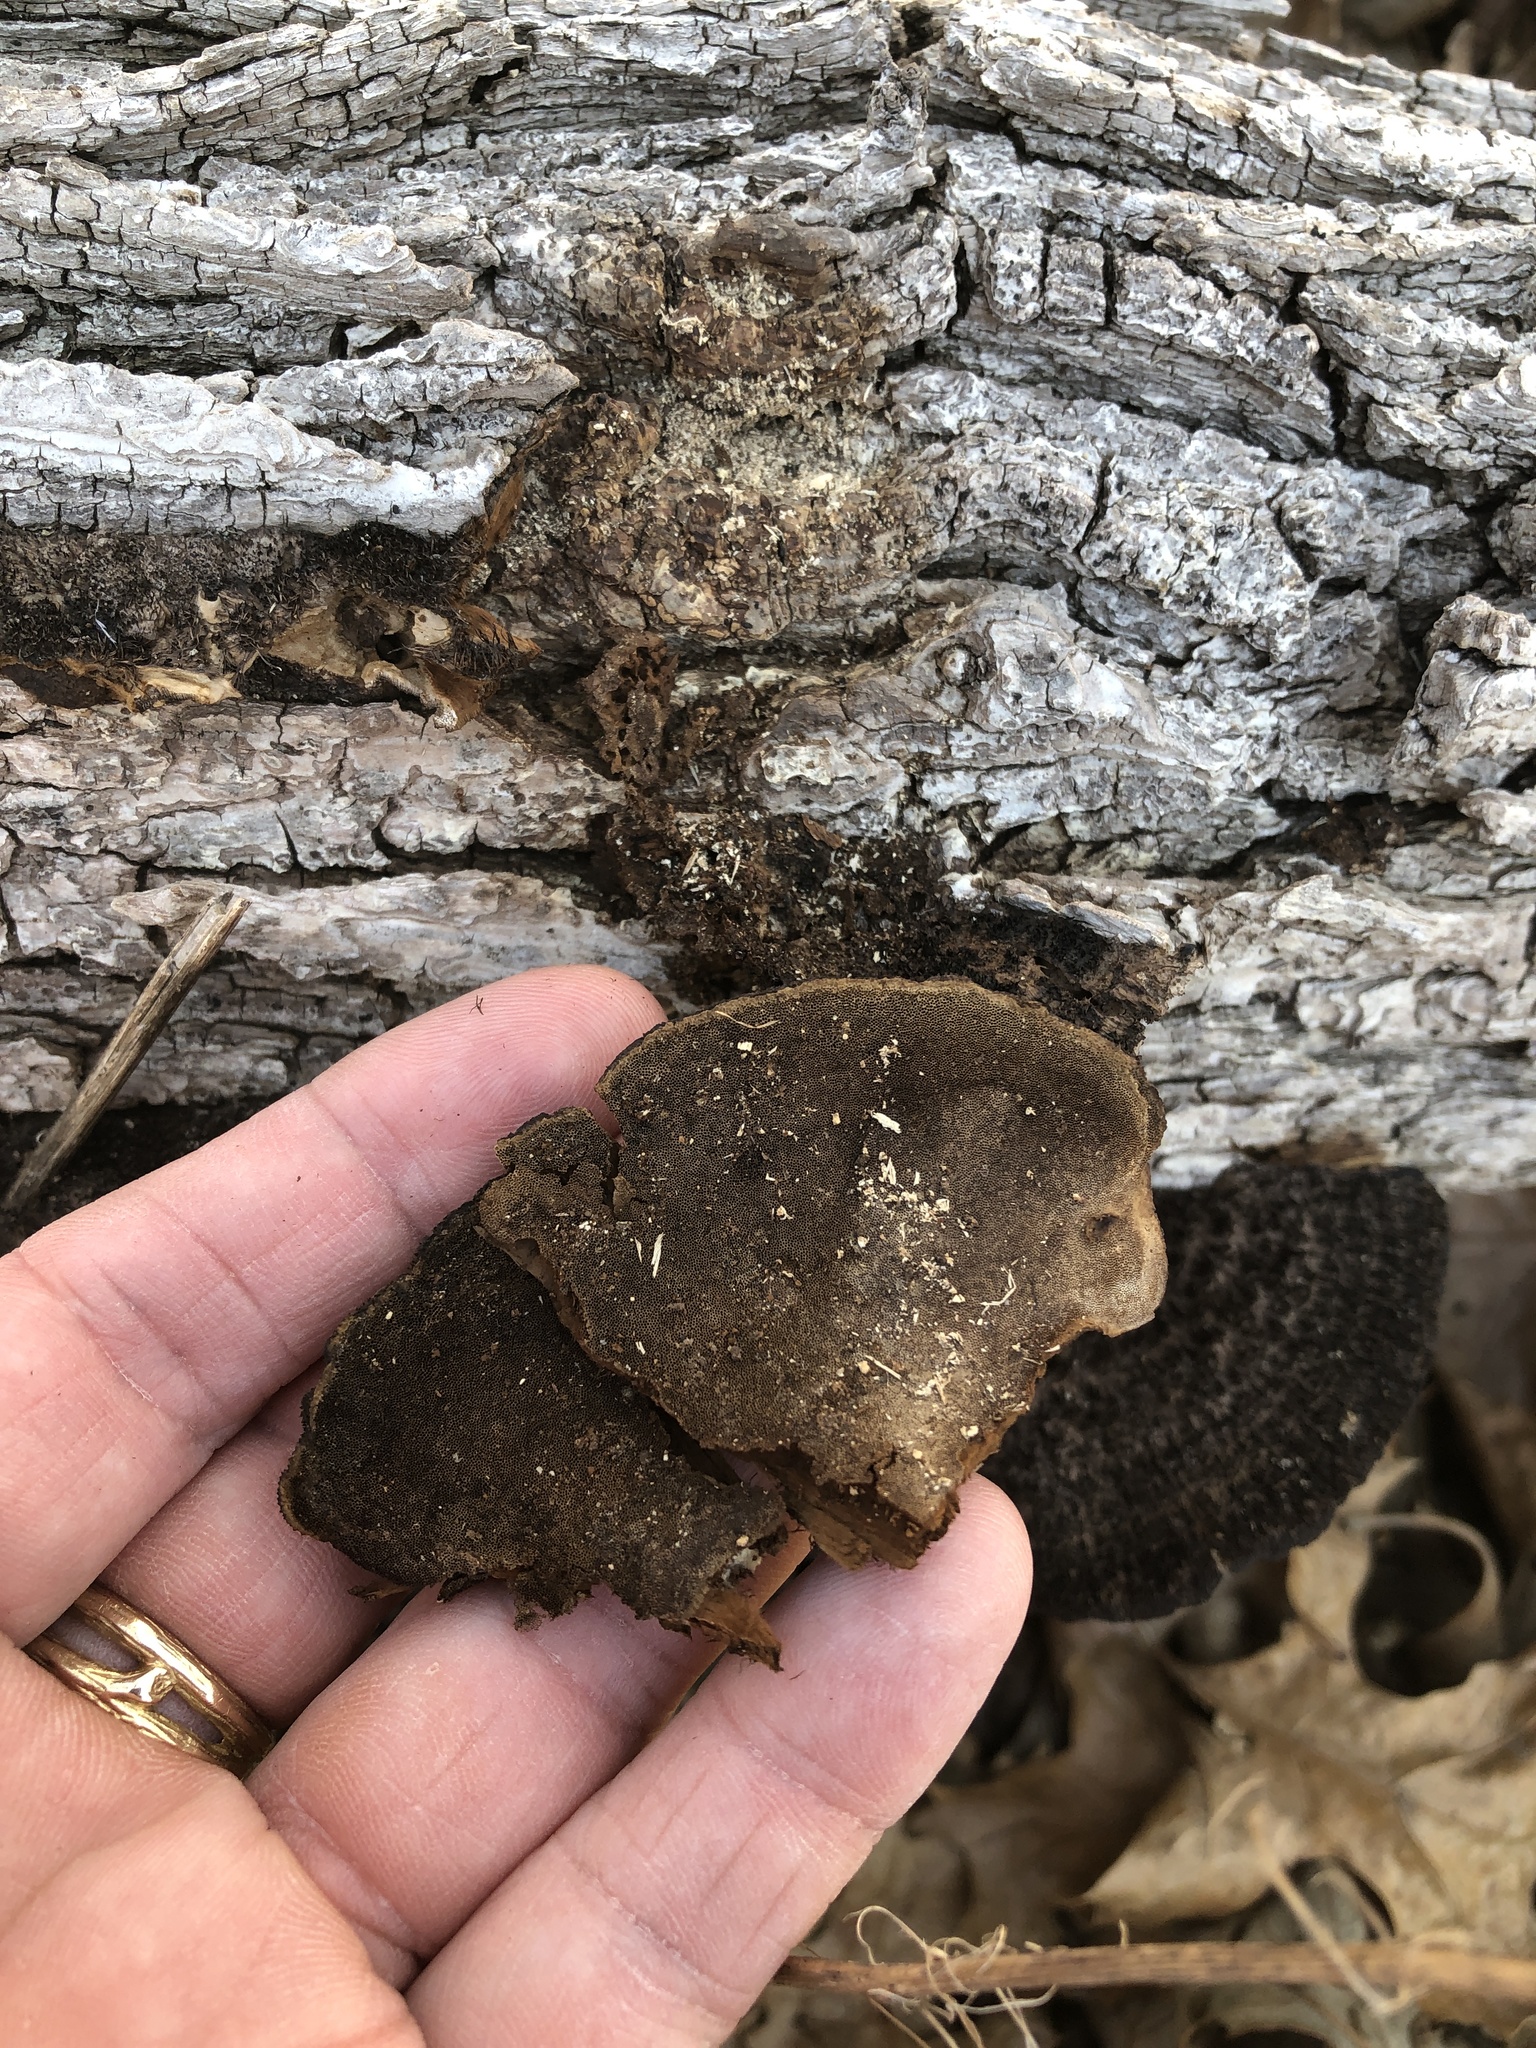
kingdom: Fungi
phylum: Basidiomycota
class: Agaricomycetes
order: Polyporales
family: Cerrenaceae
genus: Cerrena
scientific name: Cerrena hydnoides
